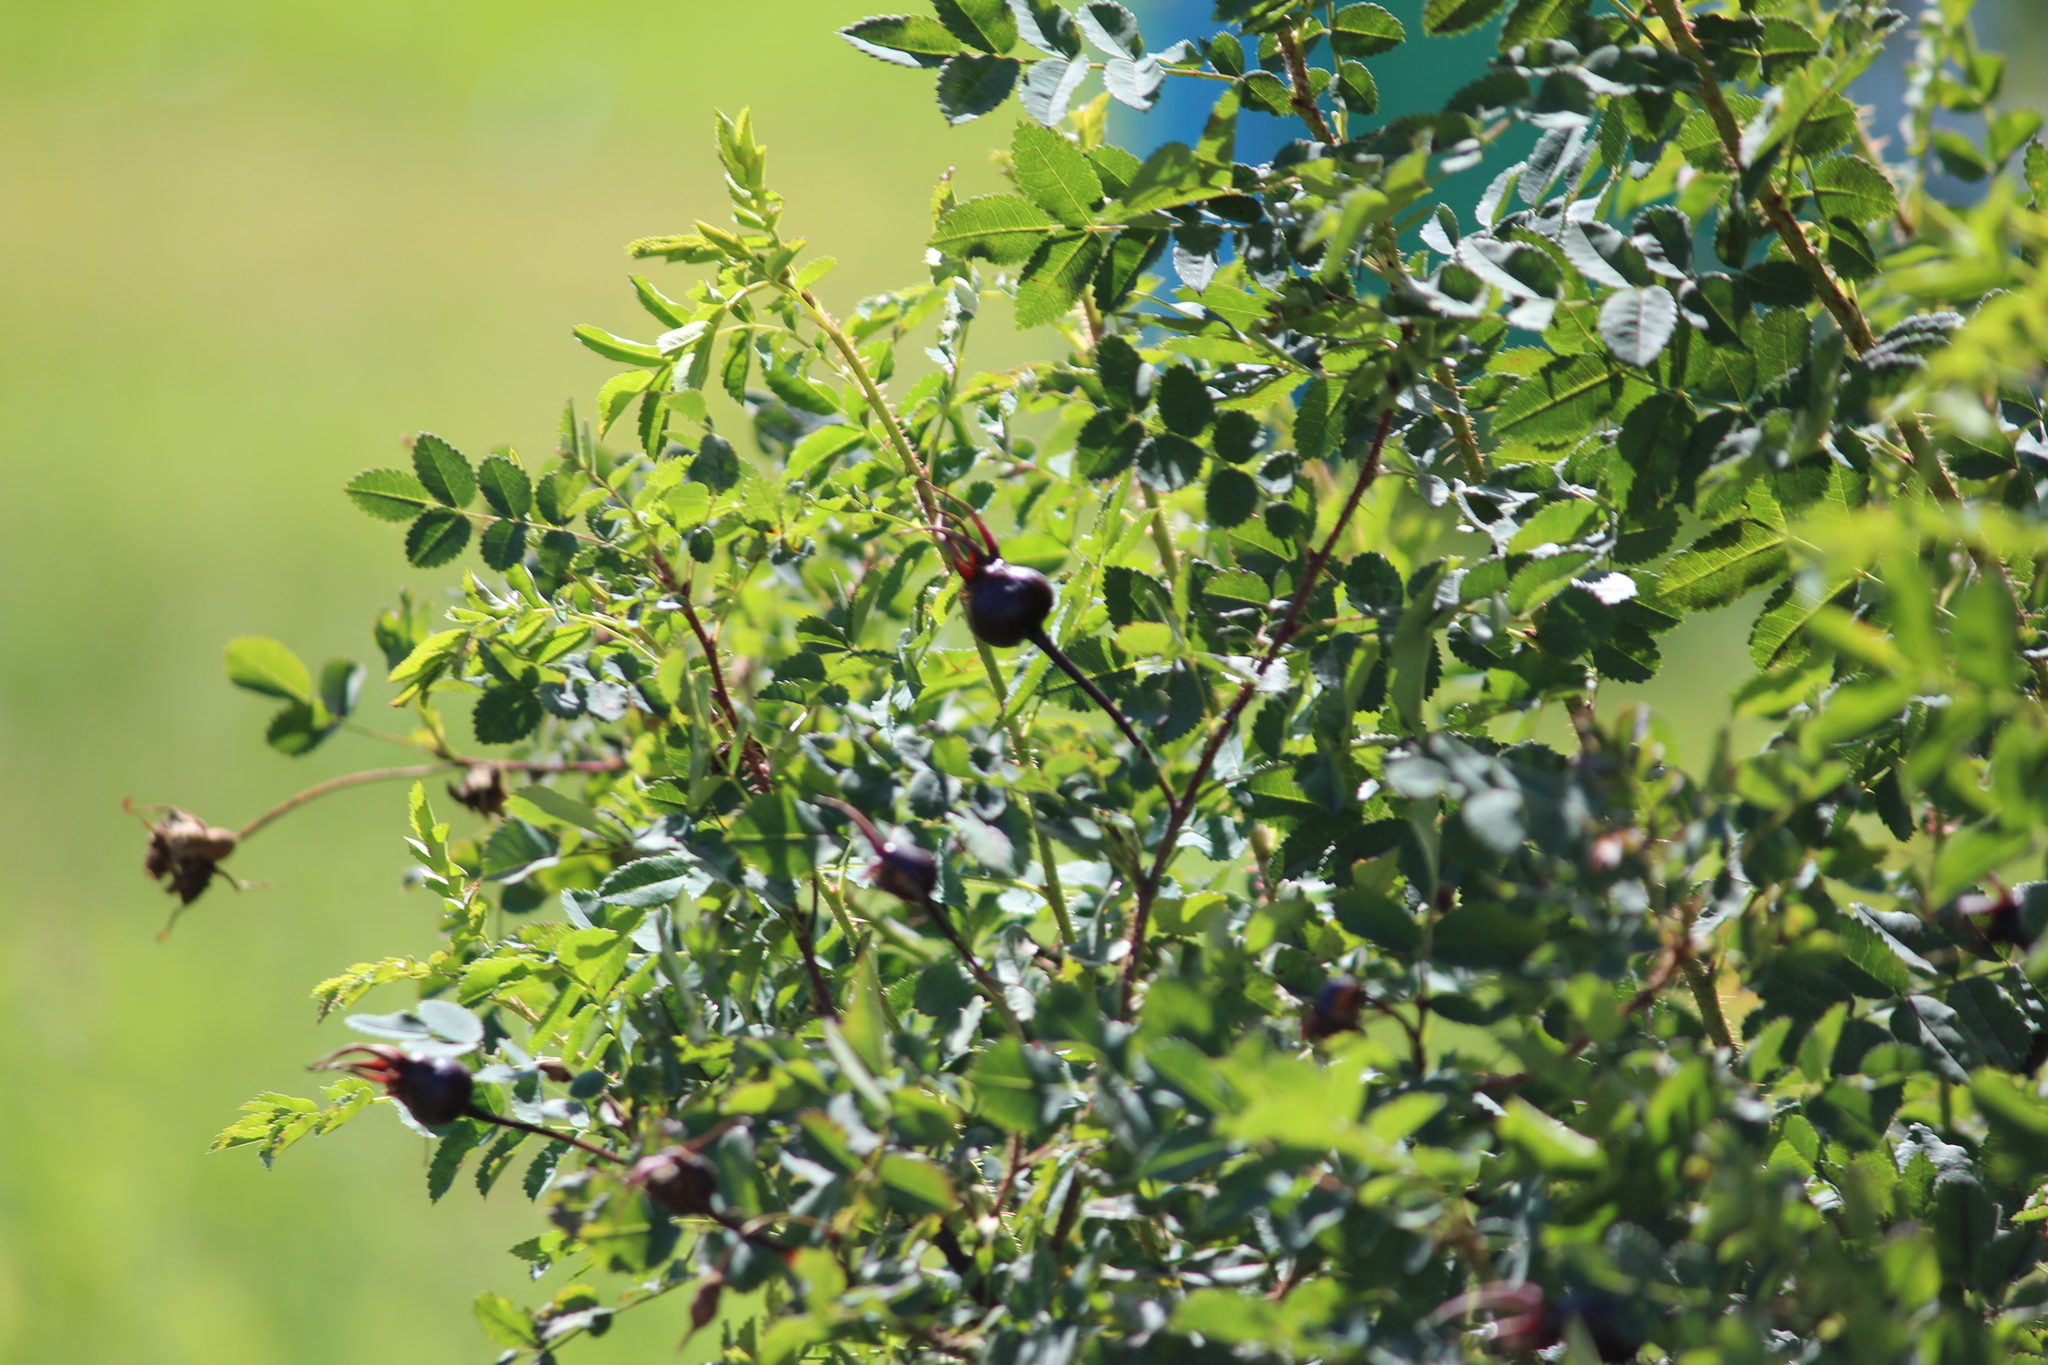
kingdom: Plantae
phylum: Tracheophyta
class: Magnoliopsida
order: Rosales
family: Rosaceae
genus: Rosa
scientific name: Rosa spinosissima
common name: Burnet rose
